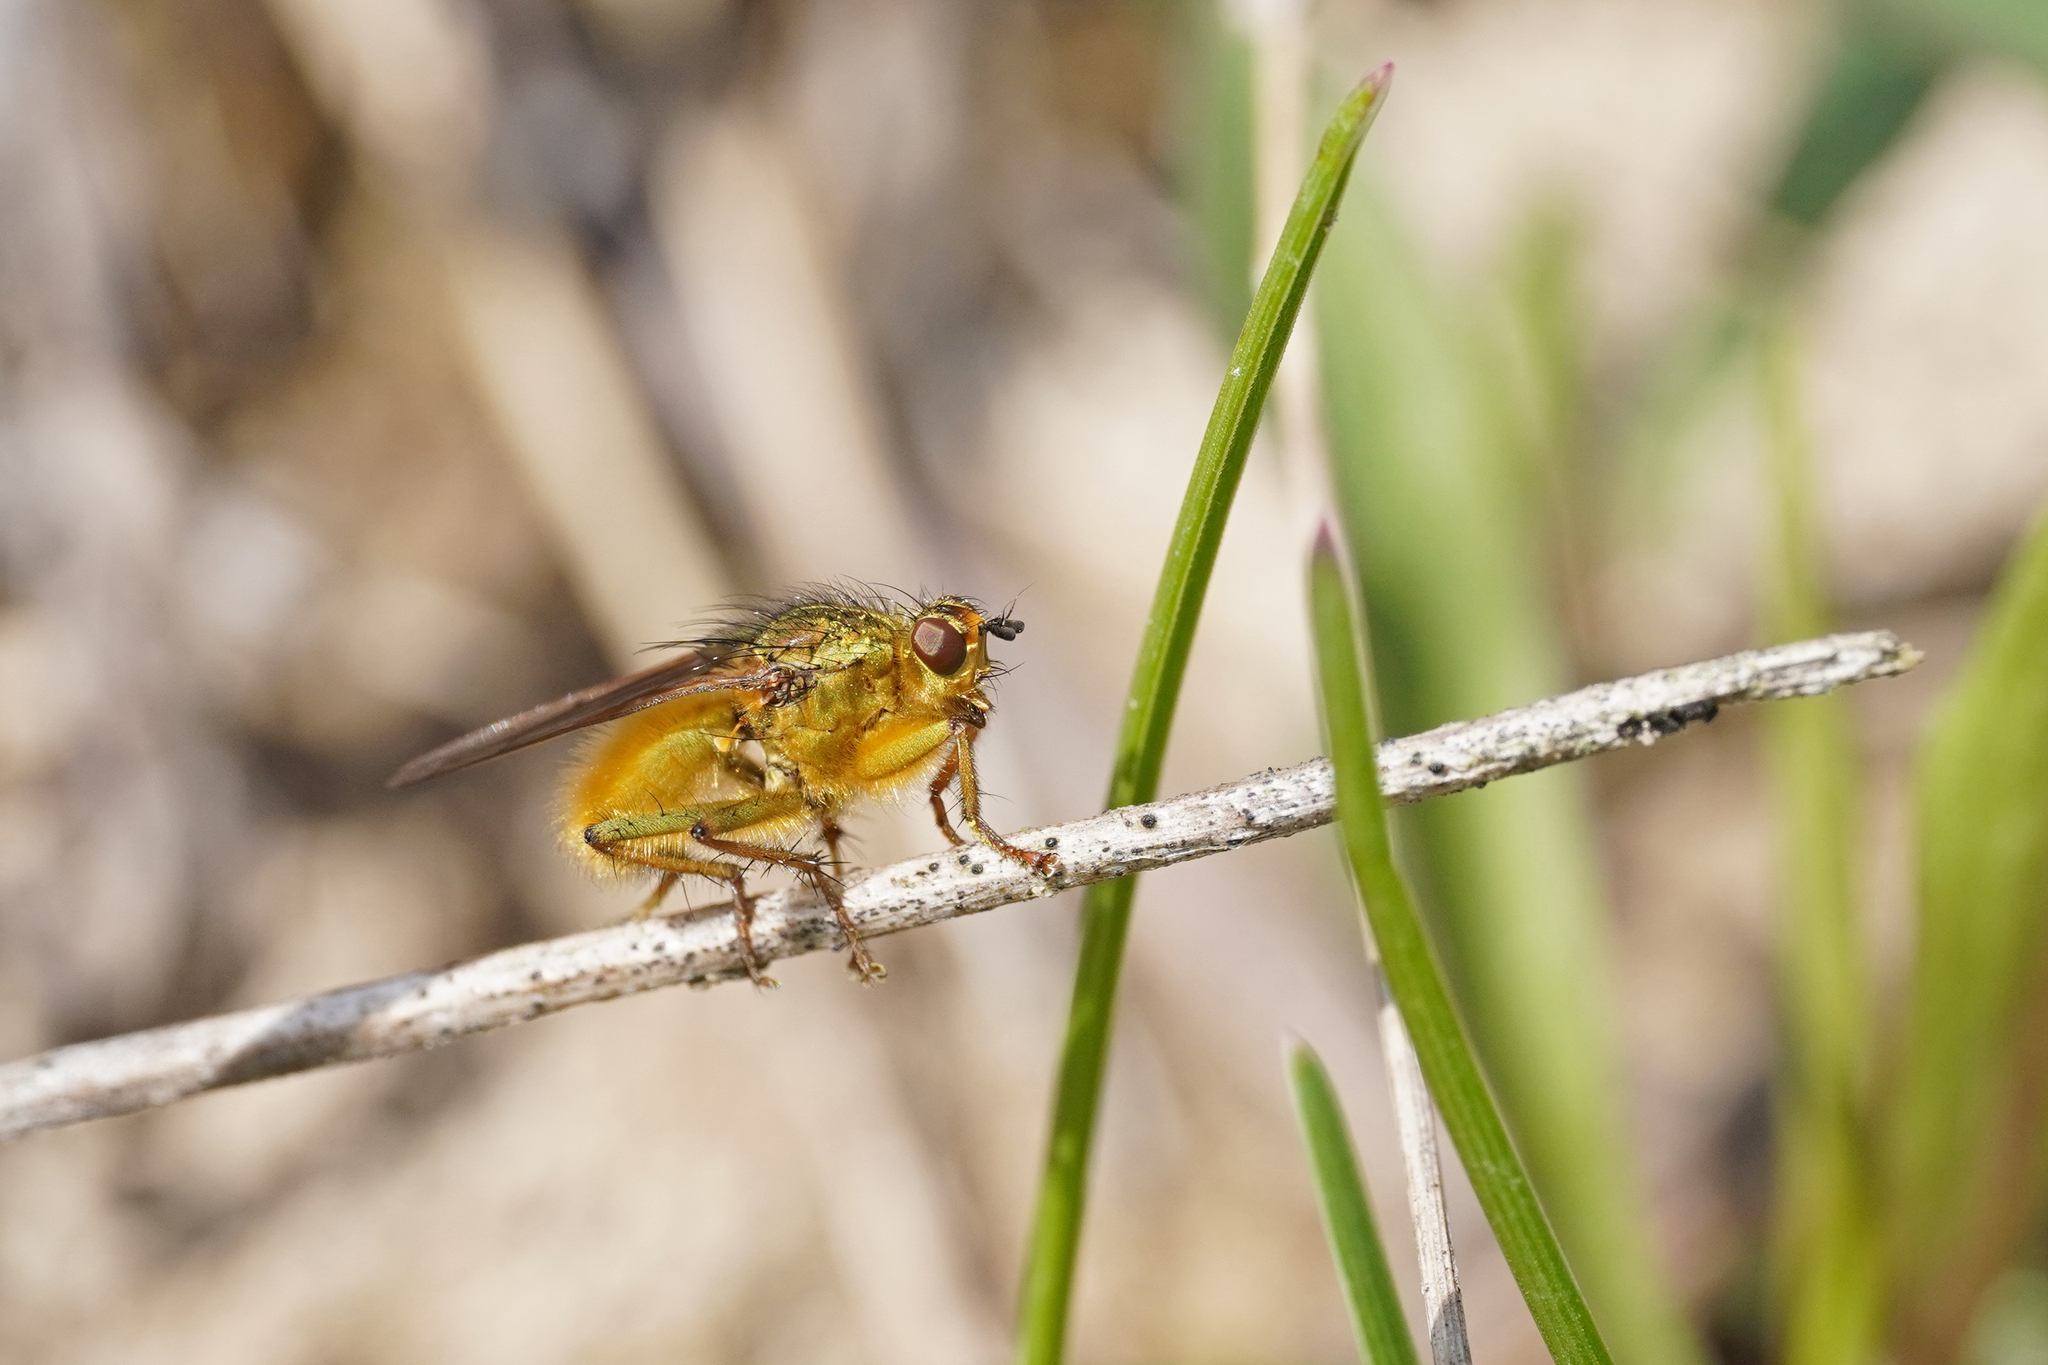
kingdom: Animalia
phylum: Arthropoda
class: Insecta
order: Diptera
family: Scathophagidae
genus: Scathophaga
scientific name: Scathophaga stercoraria
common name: Yellow dung fly
